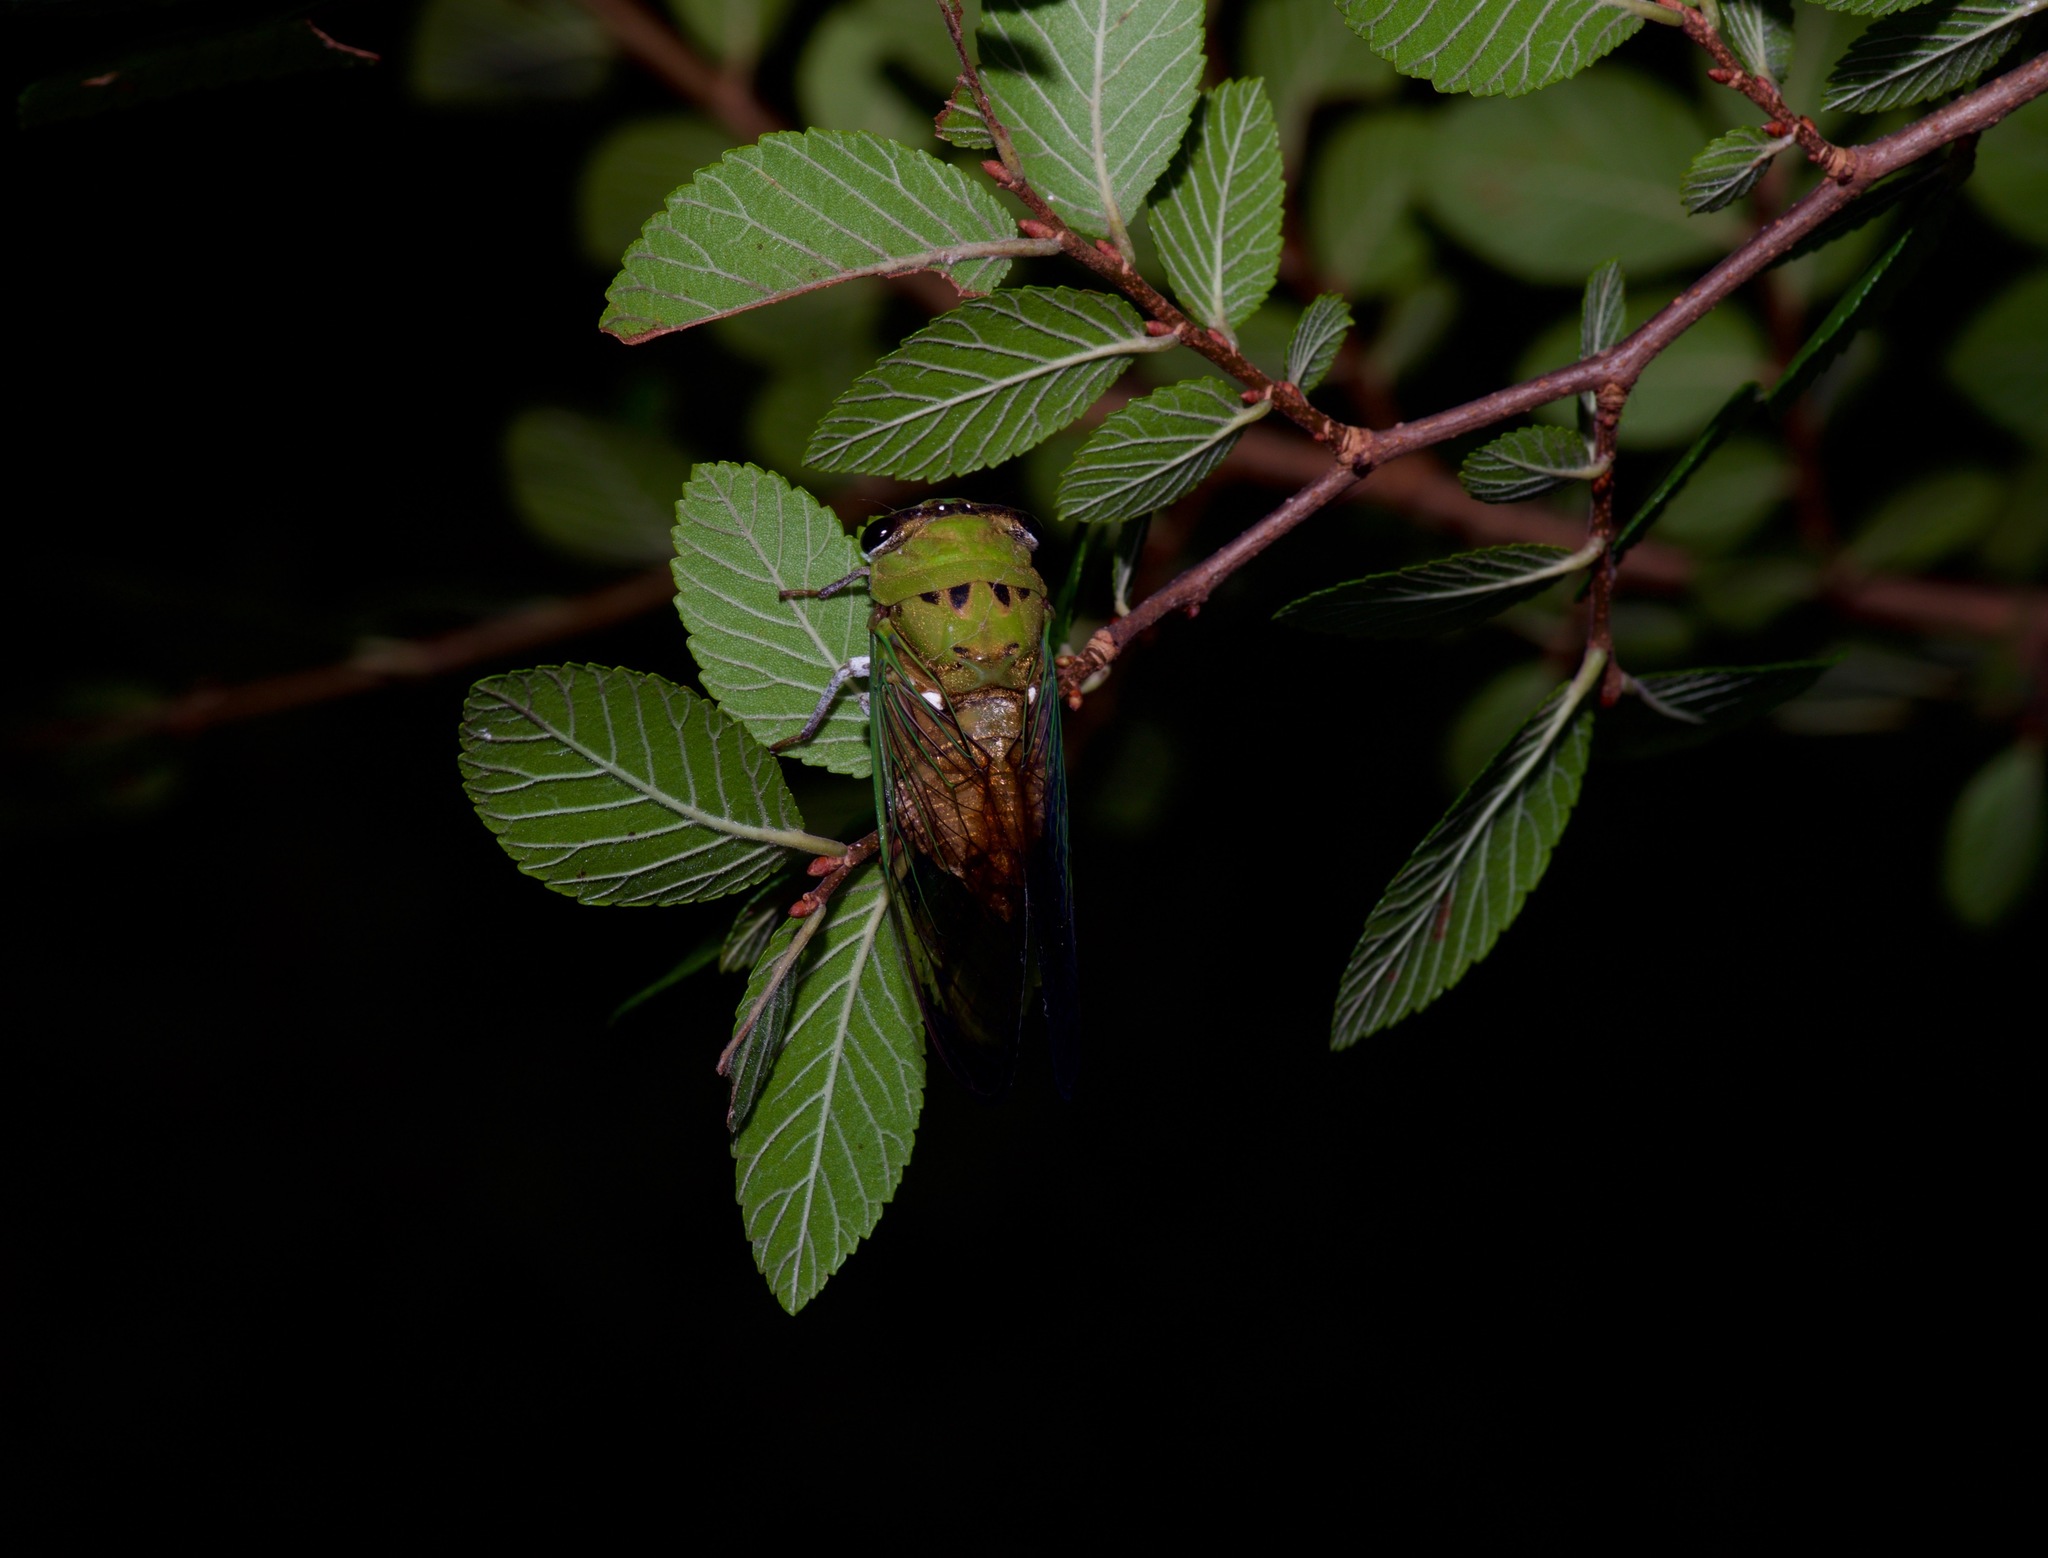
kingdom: Animalia
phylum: Arthropoda
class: Insecta
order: Hemiptera
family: Cicadidae
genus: Neotibicen
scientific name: Neotibicen superbus
